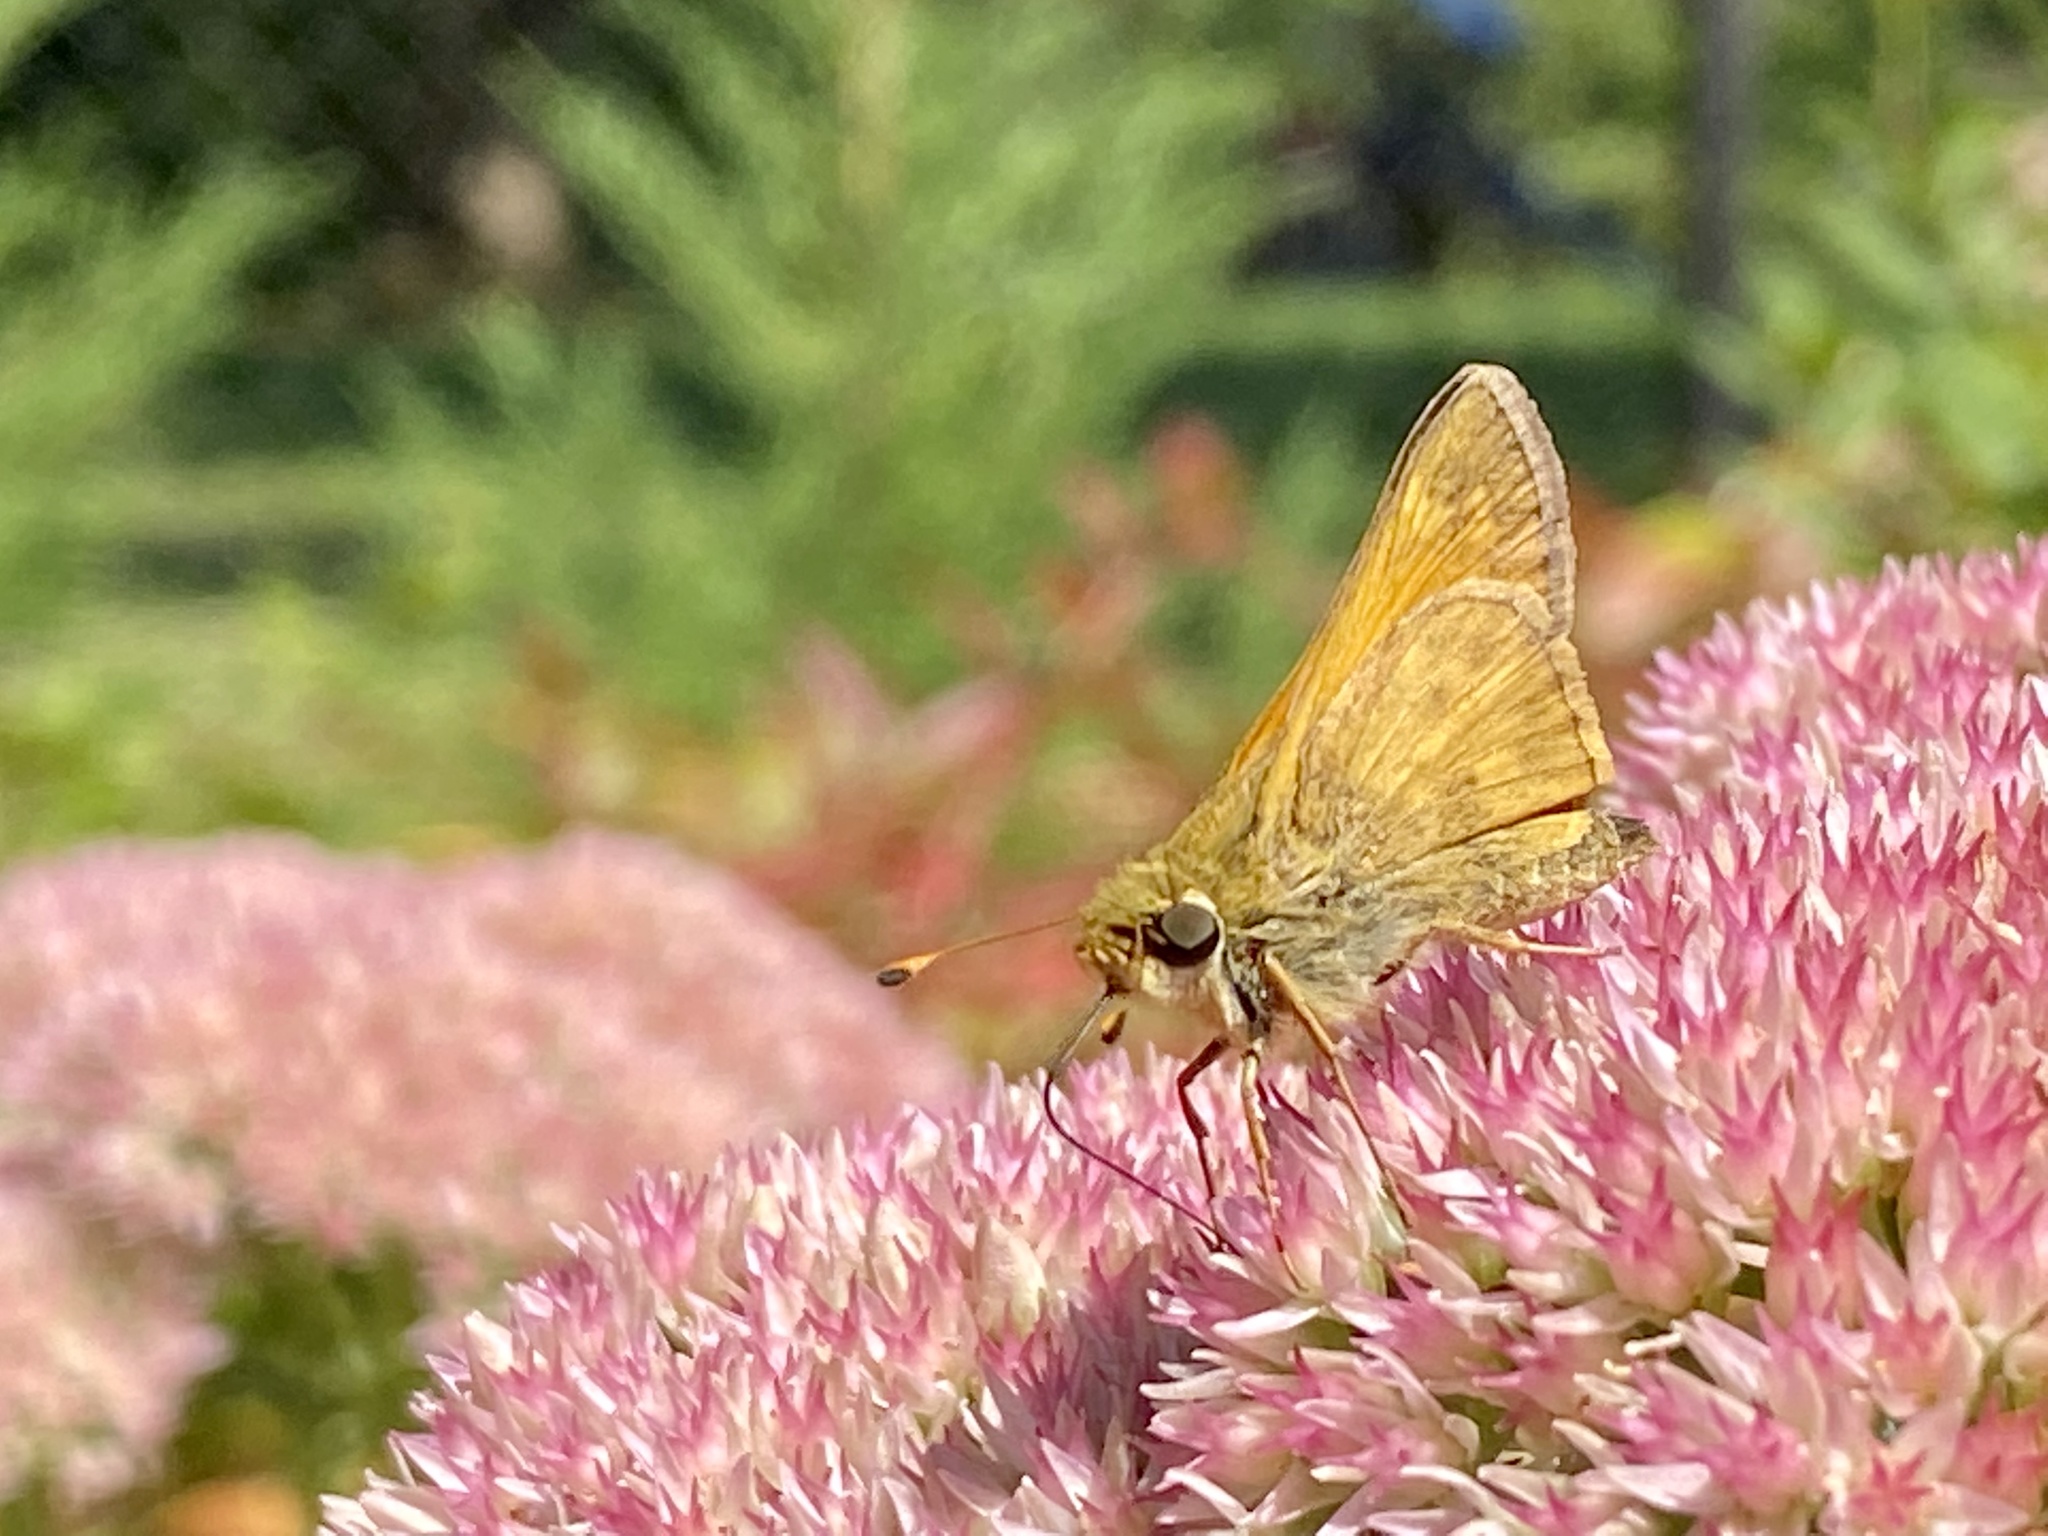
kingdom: Animalia
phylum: Arthropoda
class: Insecta
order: Lepidoptera
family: Hesperiidae
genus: Atalopedes
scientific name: Atalopedes
